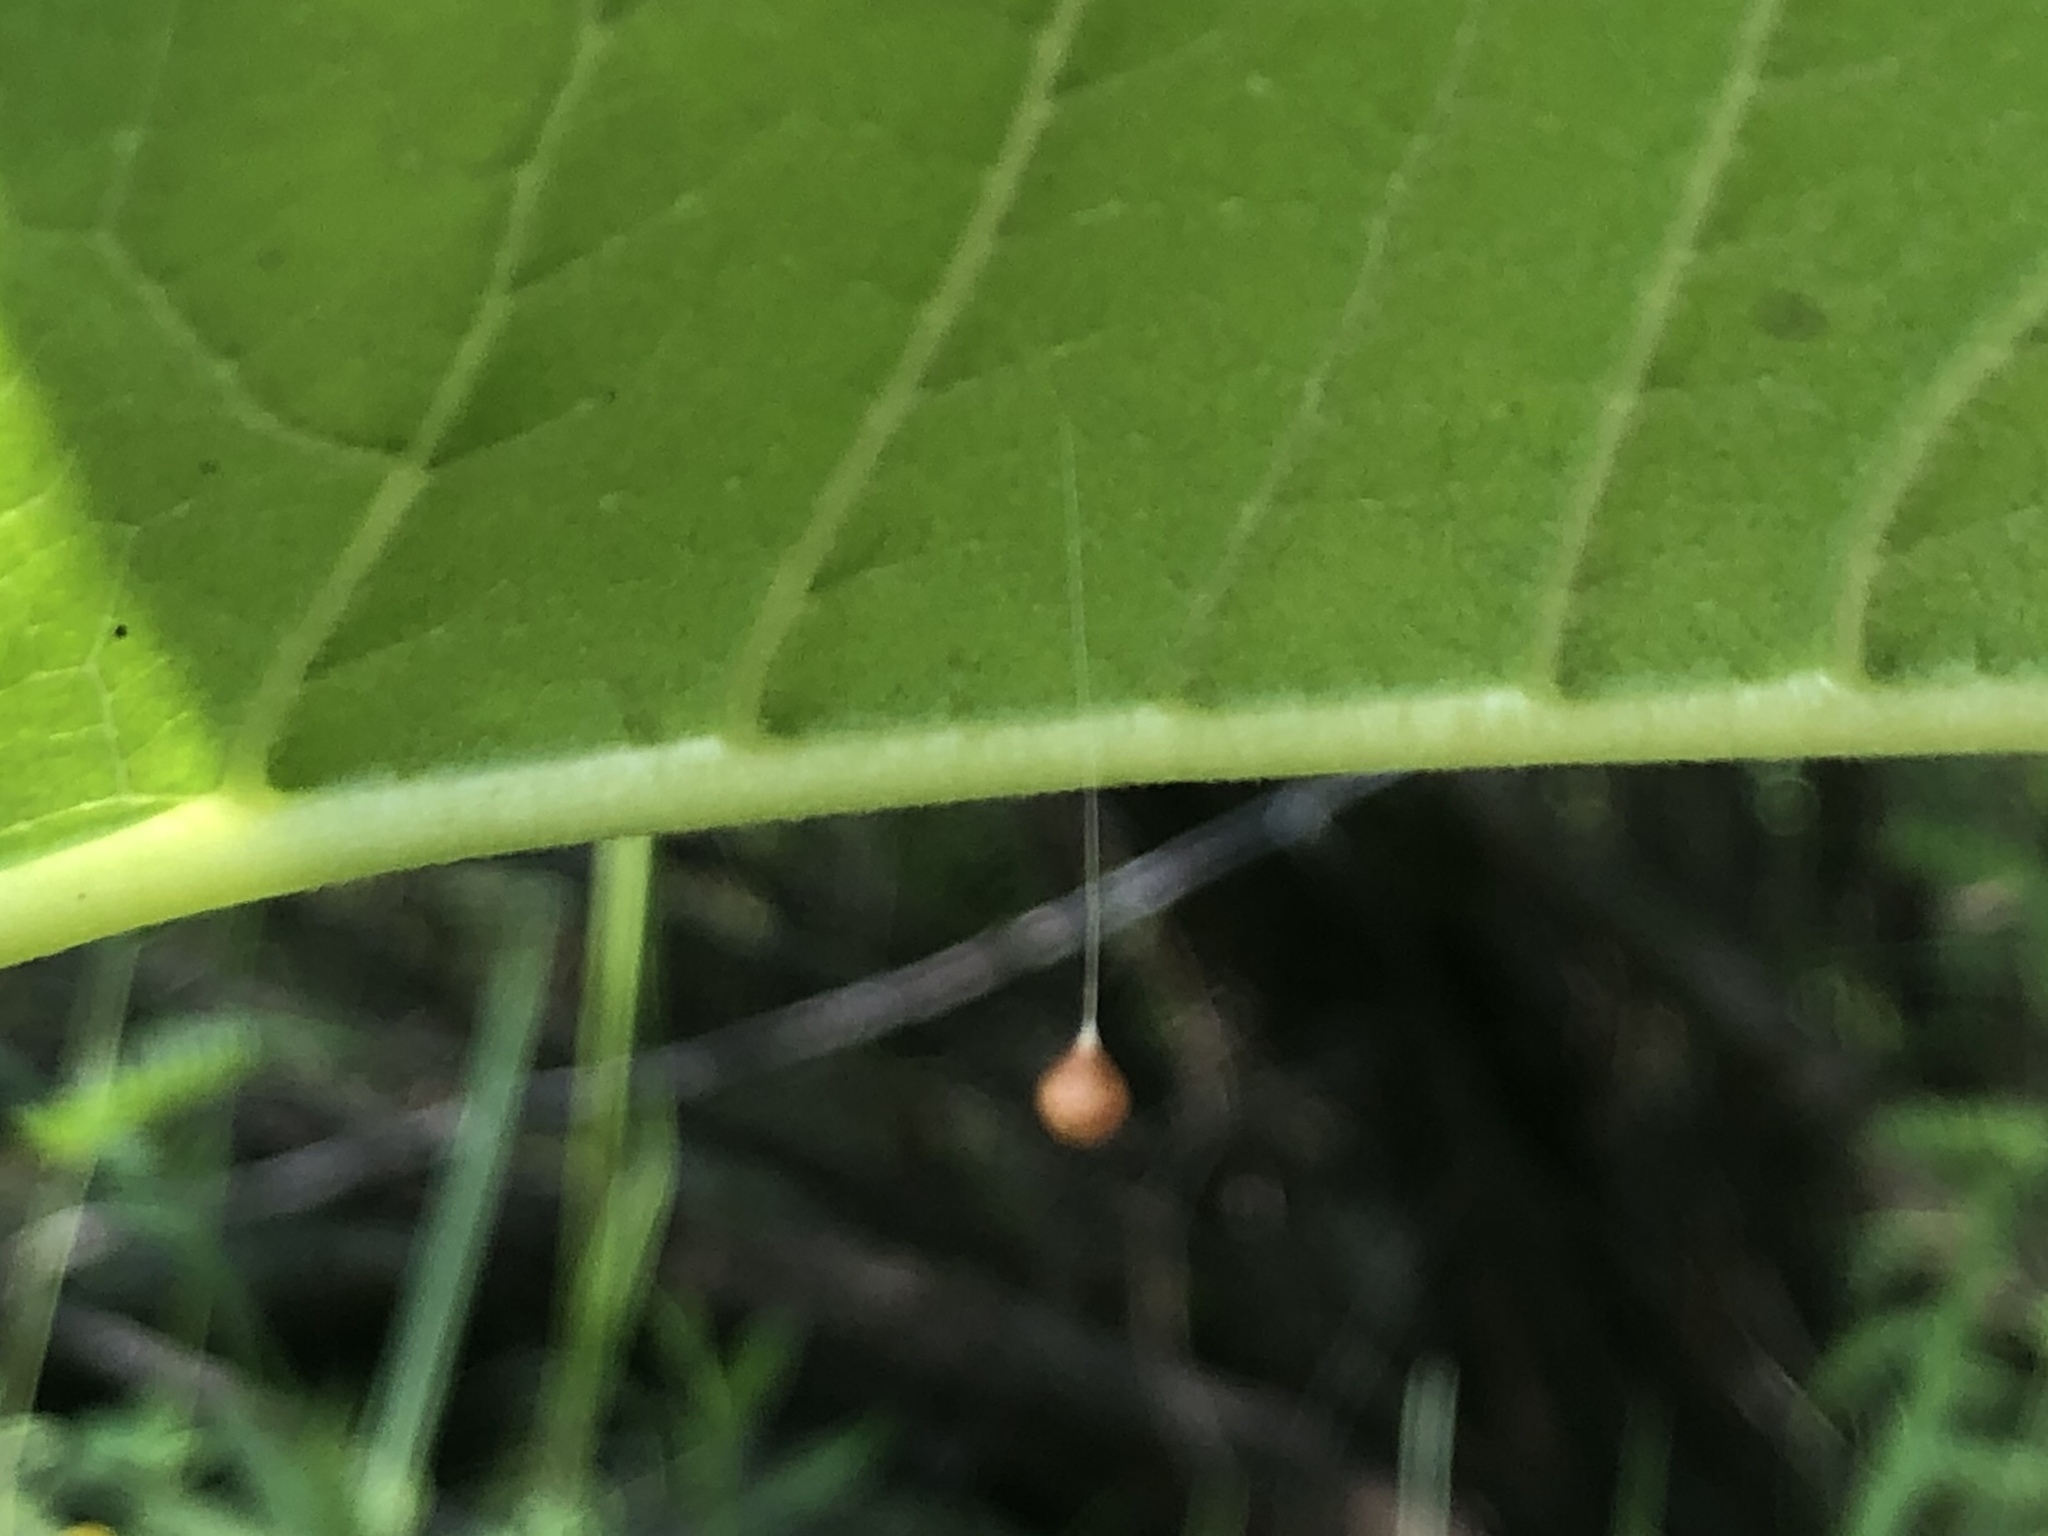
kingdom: Animalia
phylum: Arthropoda
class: Arachnida
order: Araneae
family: Theridiosomatidae
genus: Theridiosoma
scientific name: Theridiosoma gemmosum
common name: Ray spider
